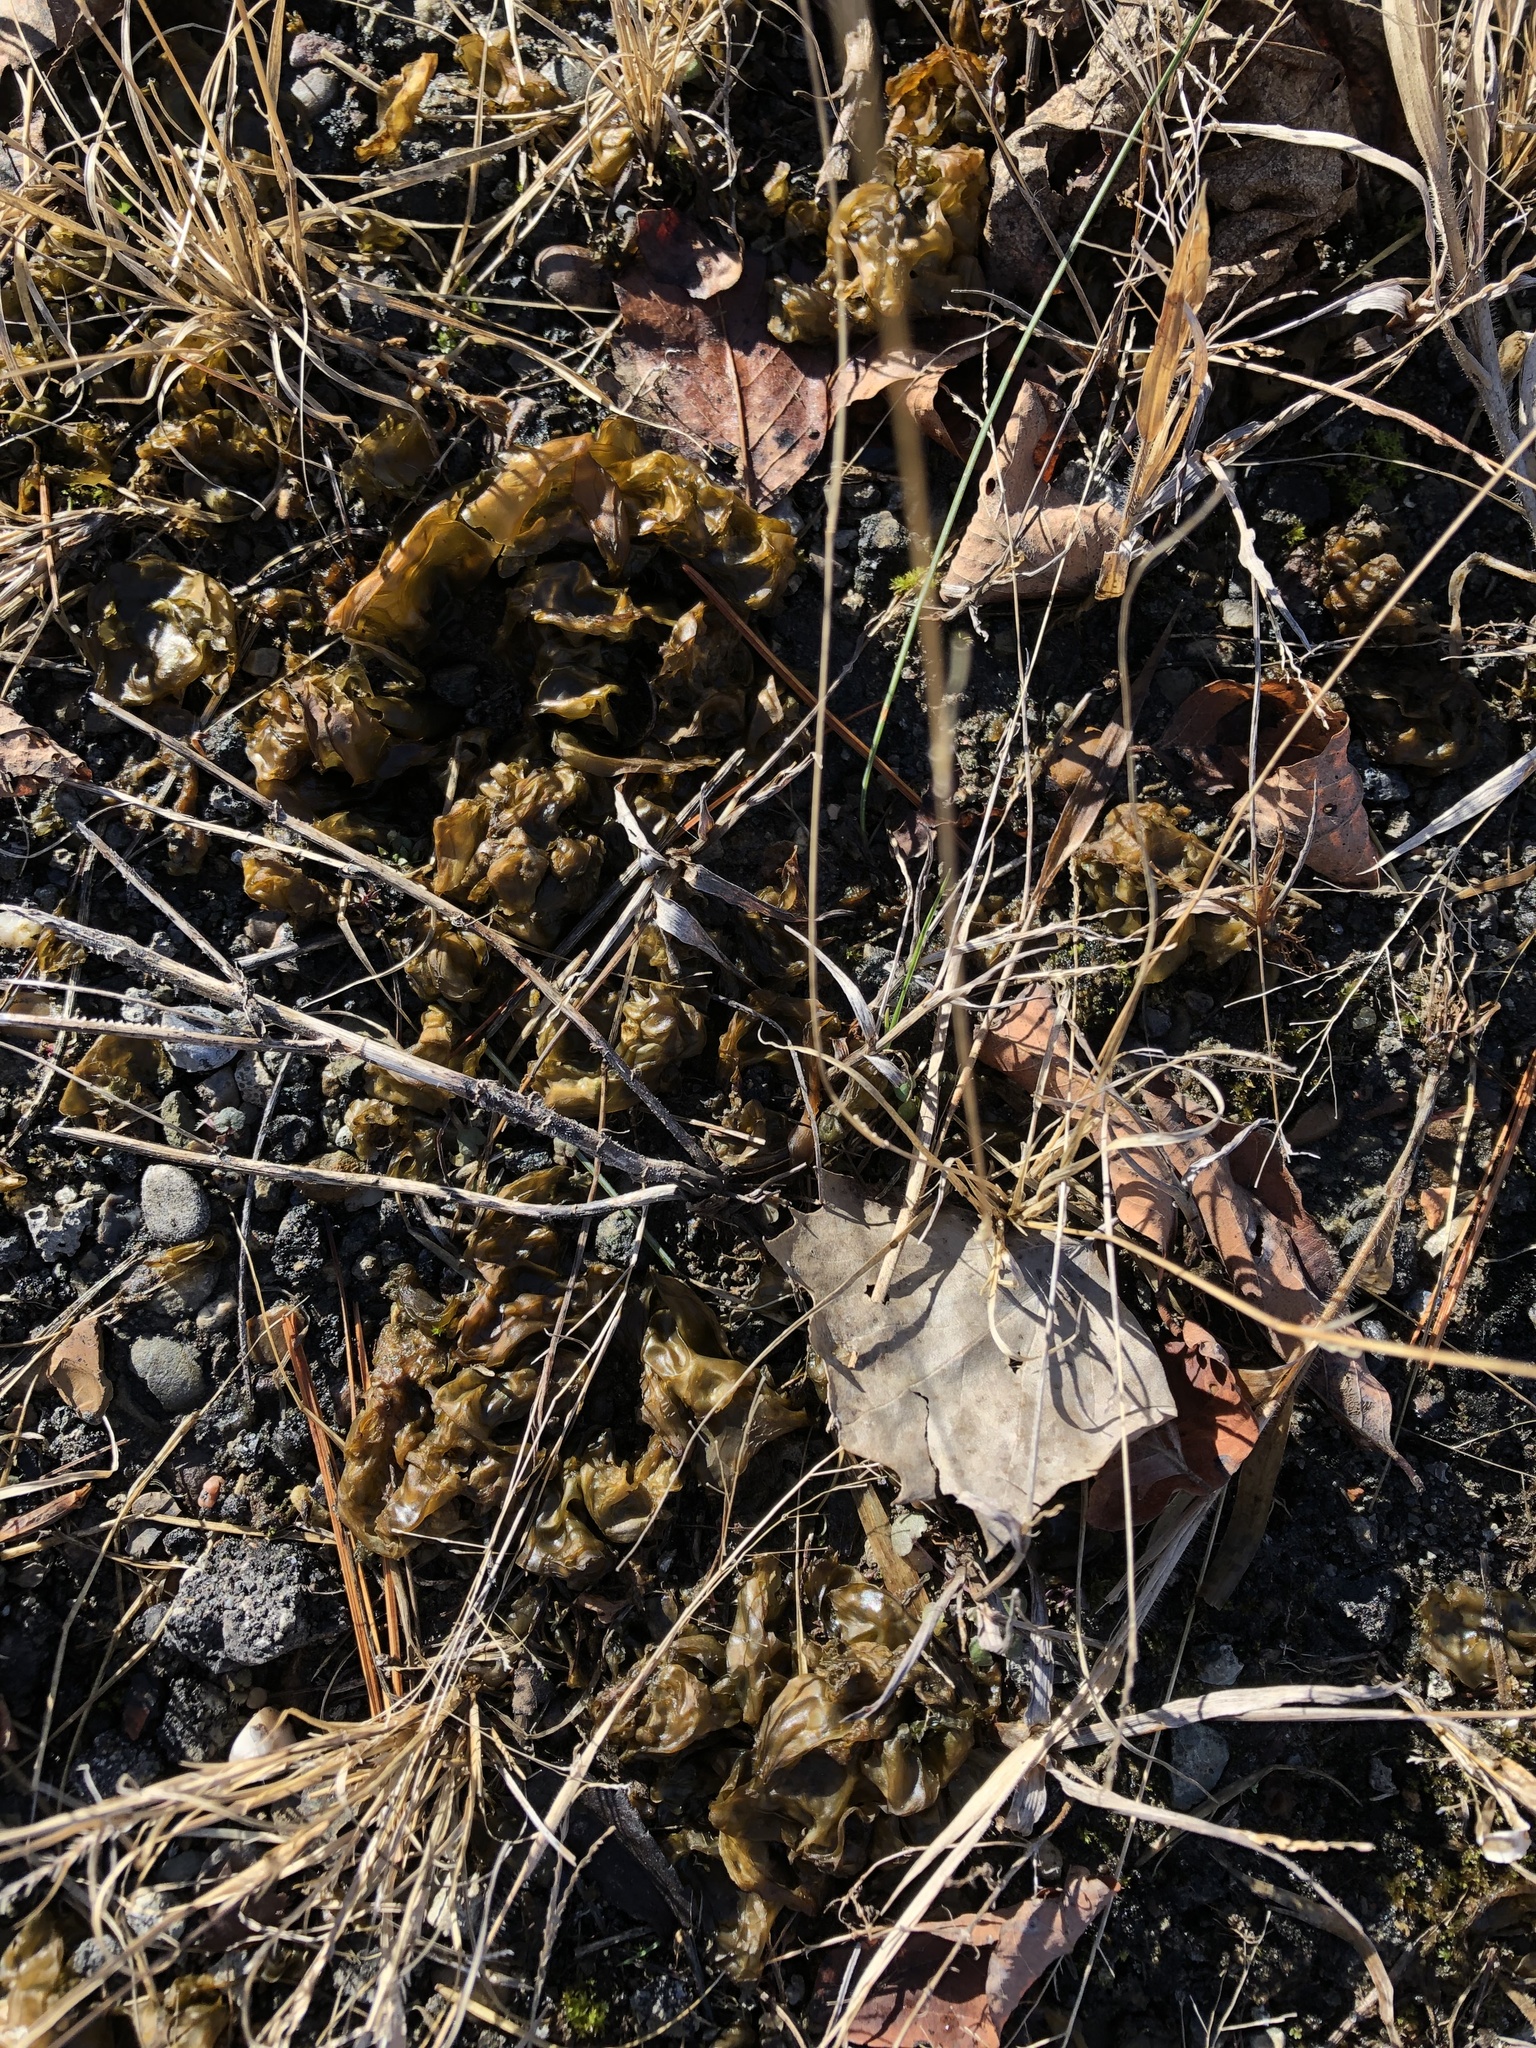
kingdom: Bacteria
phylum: Cyanobacteria
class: Cyanobacteriia
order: Cyanobacteriales
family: Nostocaceae
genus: Nostoc
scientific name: Nostoc commune
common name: Star jelly
